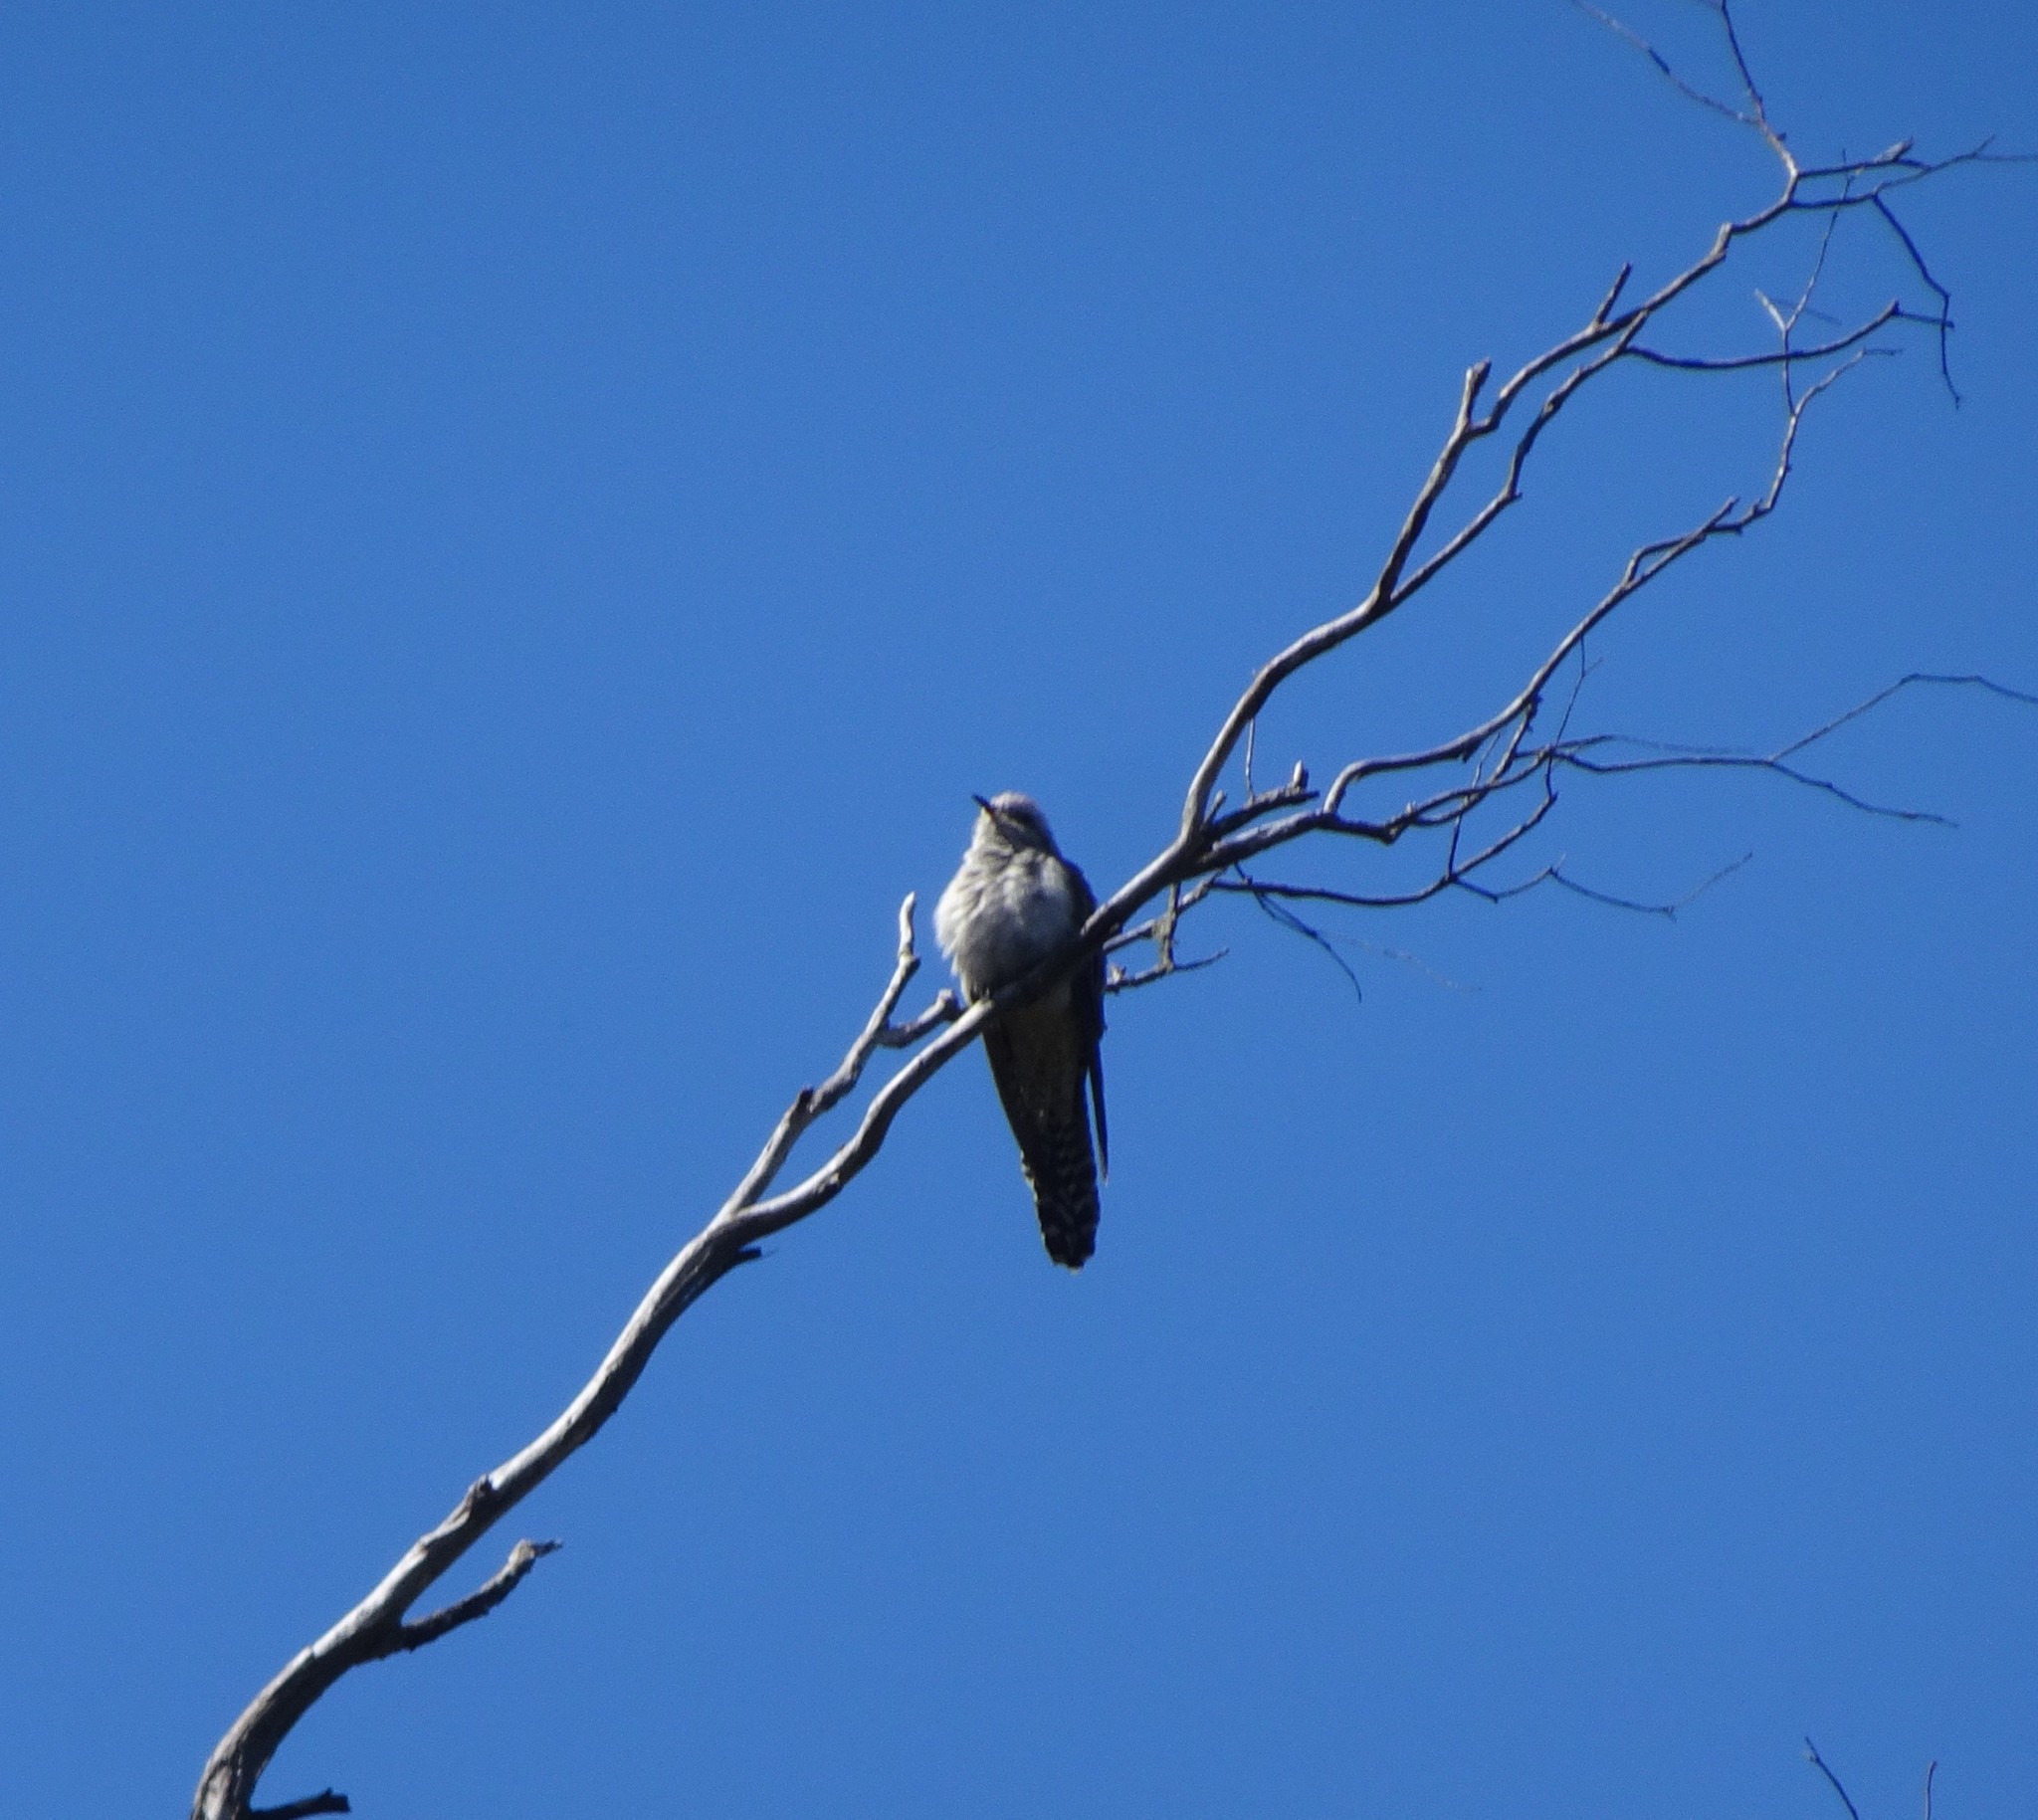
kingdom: Animalia
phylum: Chordata
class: Aves
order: Cuculiformes
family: Cuculidae
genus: Cuculus
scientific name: Cuculus pallidus
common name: Pallid cuckoo
